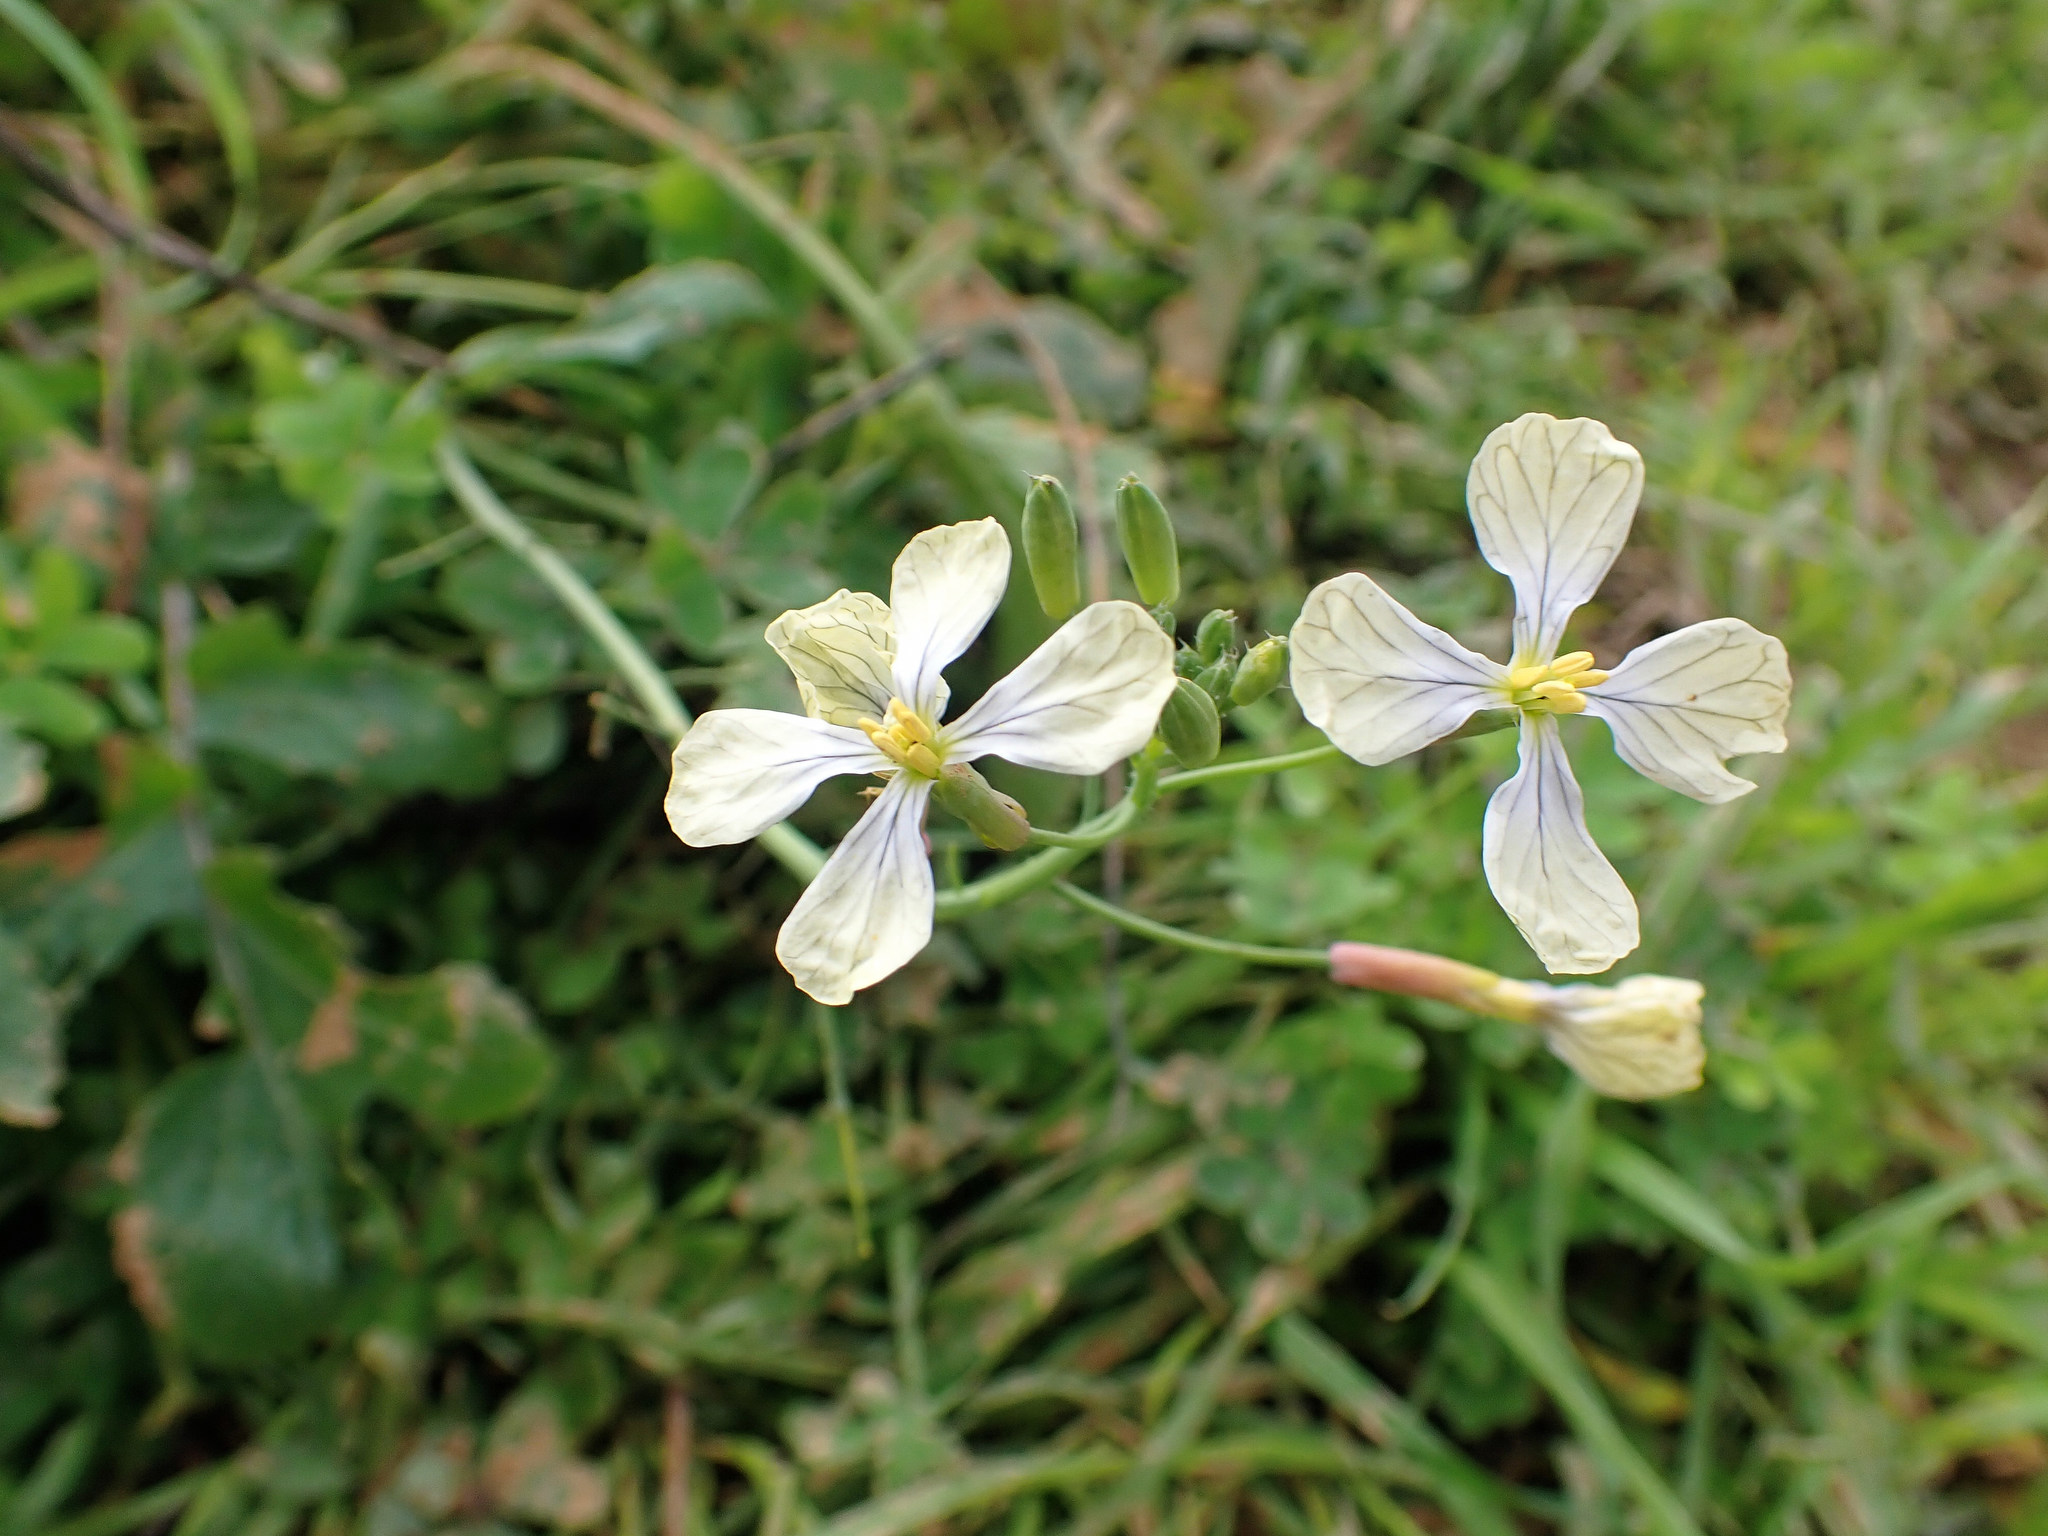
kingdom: Plantae
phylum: Tracheophyta
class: Magnoliopsida
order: Brassicales
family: Brassicaceae
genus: Raphanus
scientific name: Raphanus raphanistrum
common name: Wild radish
